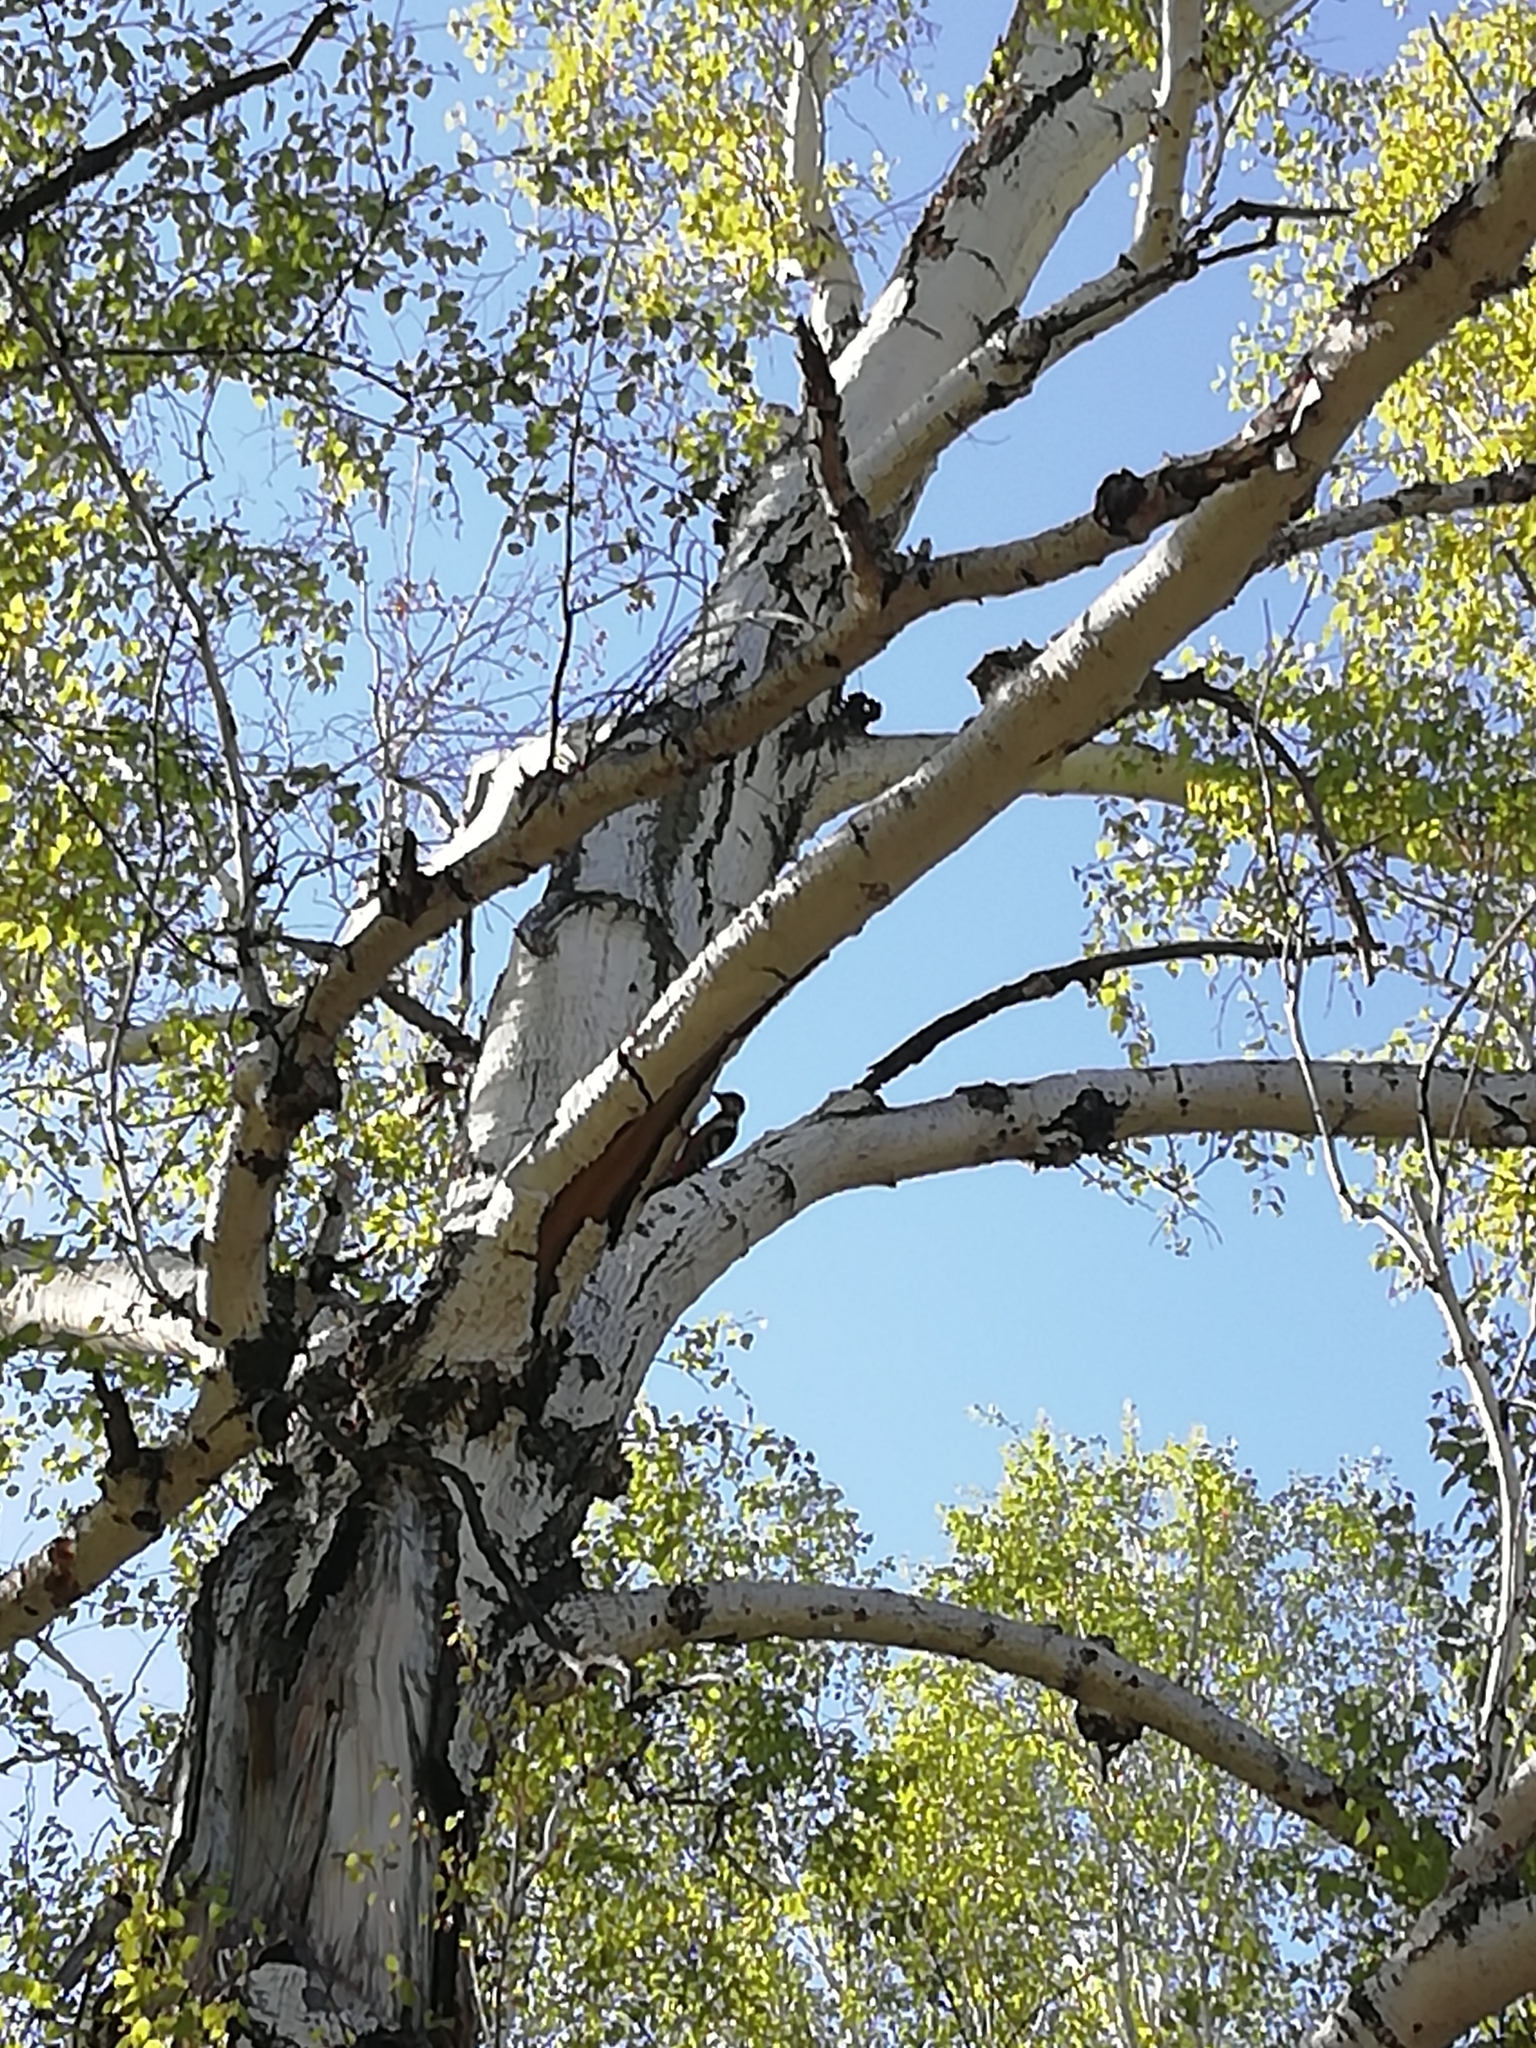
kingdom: Animalia
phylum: Chordata
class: Aves
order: Piciformes
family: Picidae
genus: Dendrocopos
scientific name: Dendrocopos major
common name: Great spotted woodpecker
